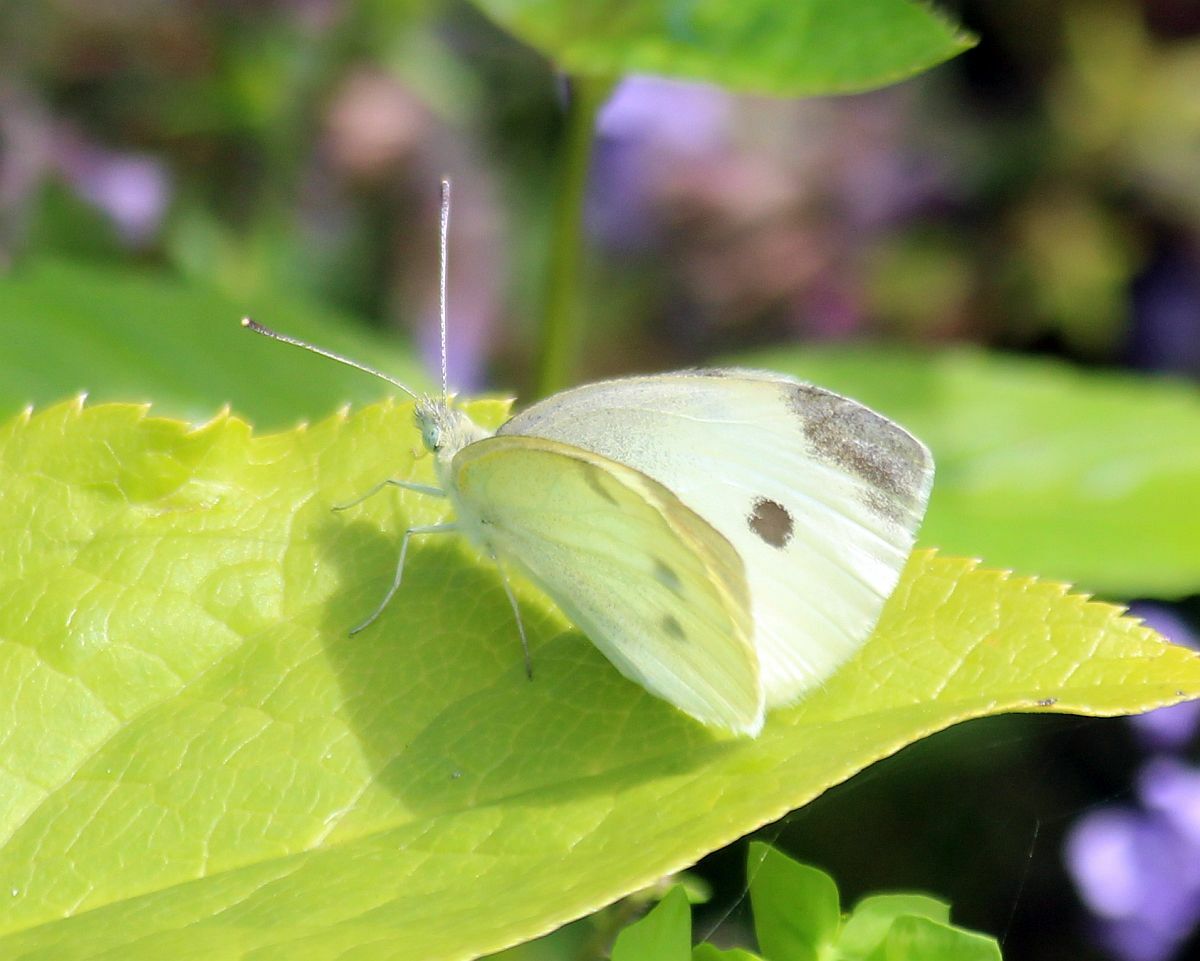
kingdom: Animalia
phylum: Arthropoda
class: Insecta
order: Lepidoptera
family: Pieridae
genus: Pieris
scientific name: Pieris rapae
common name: Small white
